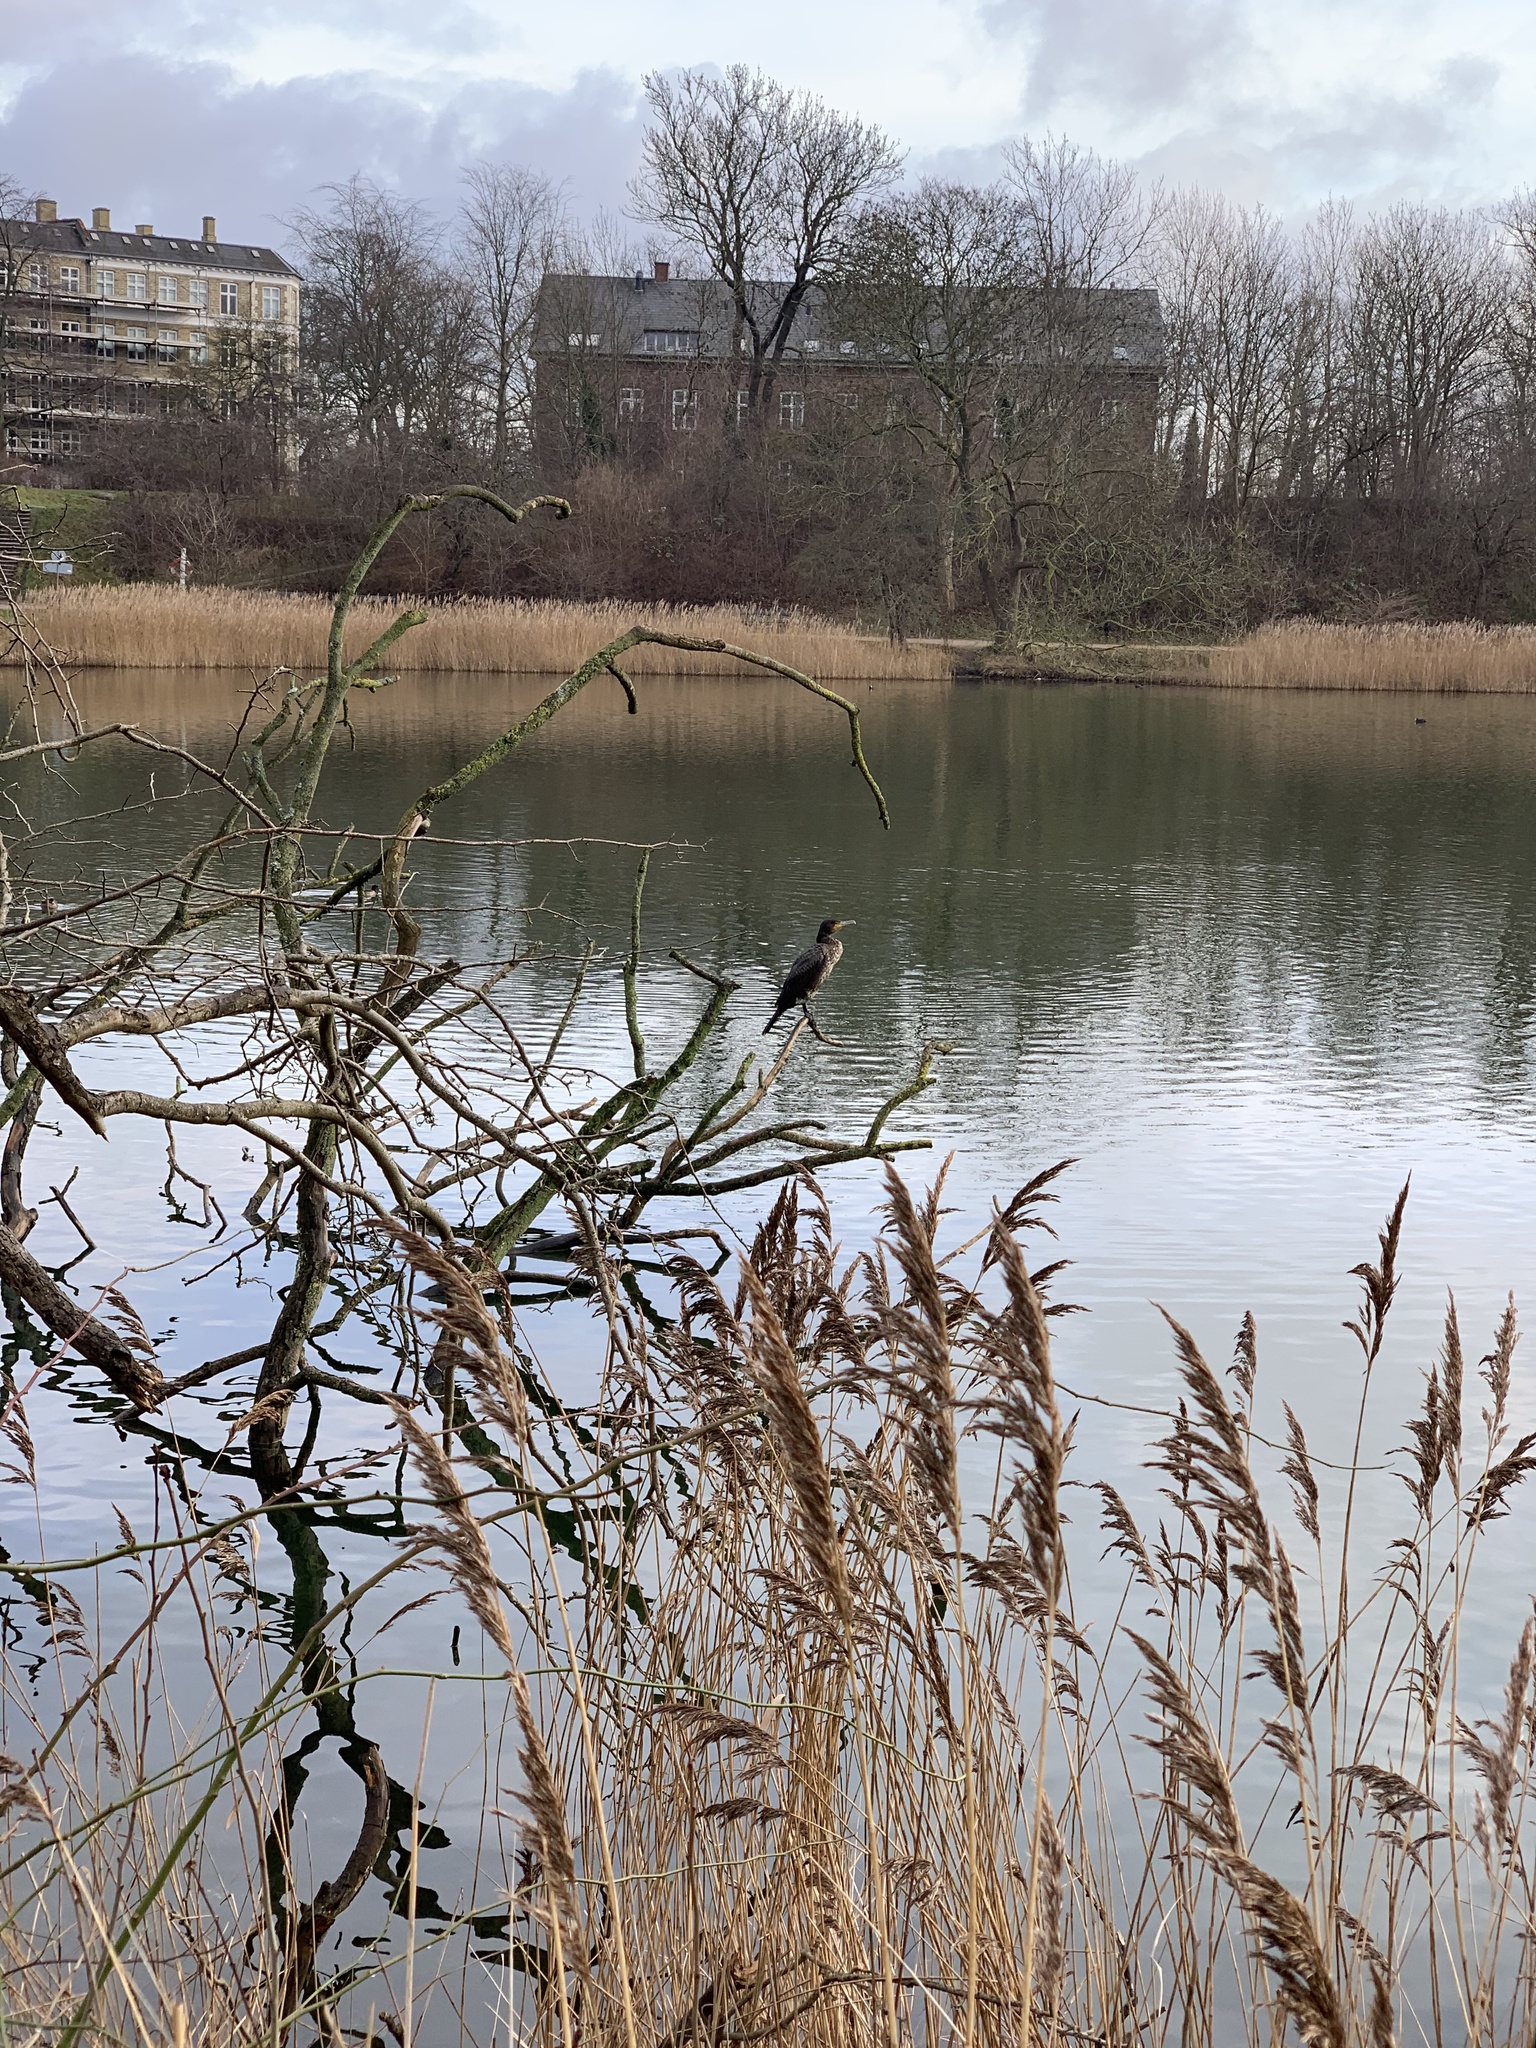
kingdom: Animalia
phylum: Chordata
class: Aves
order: Suliformes
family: Phalacrocoracidae
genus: Phalacrocorax
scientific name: Phalacrocorax carbo
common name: Great cormorant
